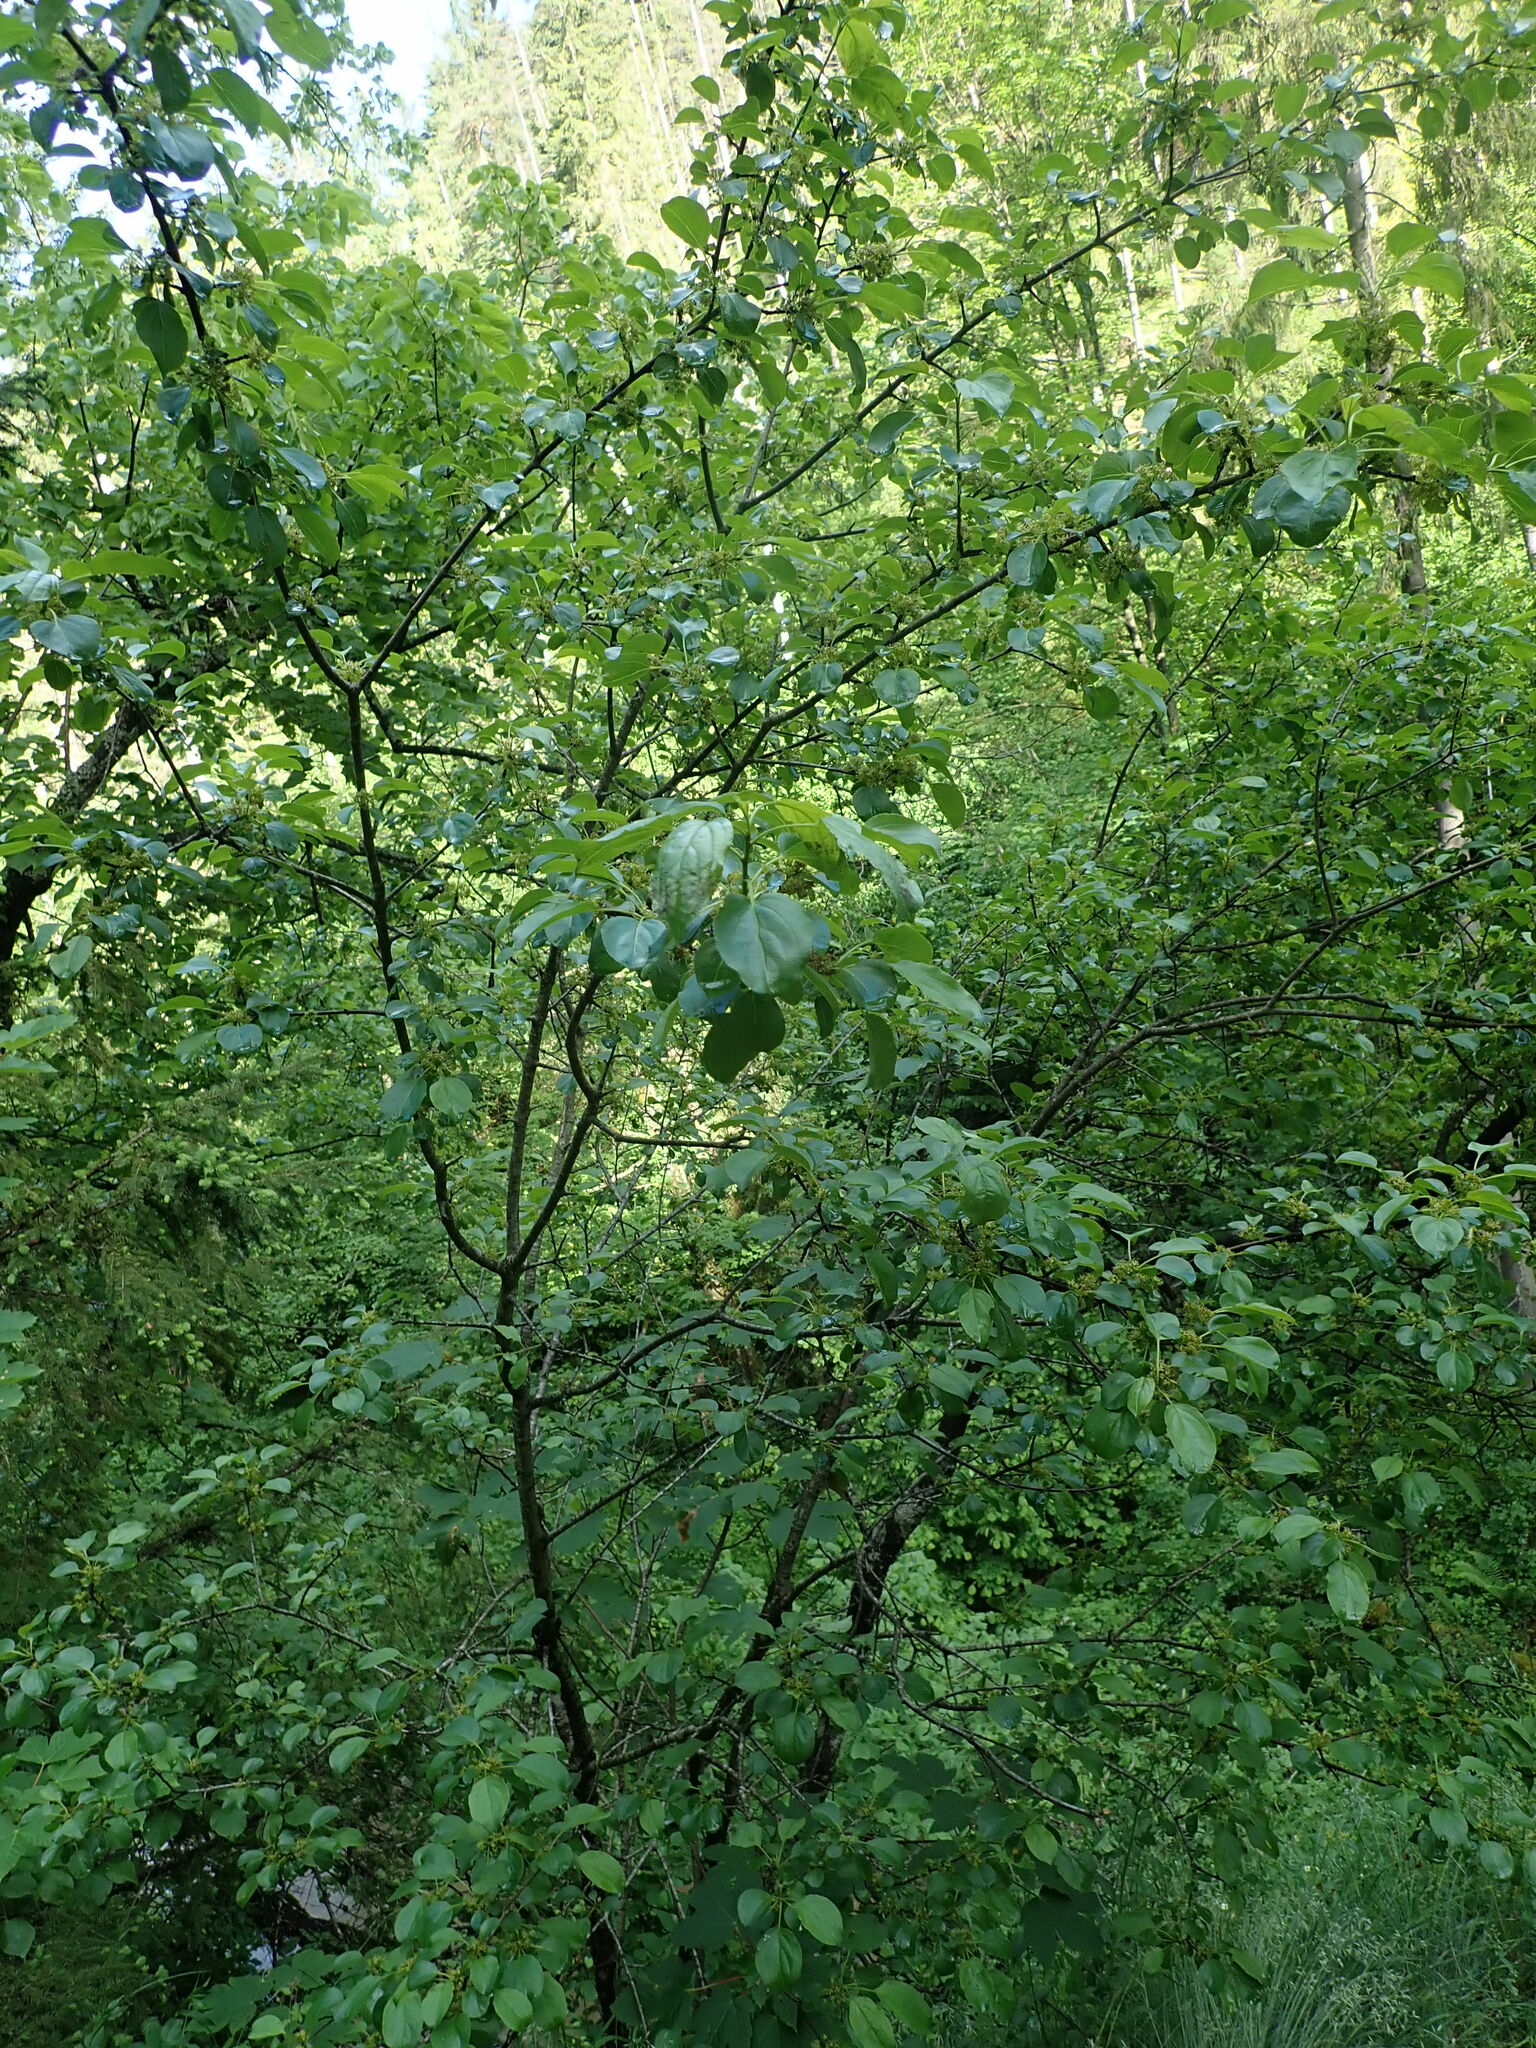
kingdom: Plantae
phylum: Tracheophyta
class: Magnoliopsida
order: Rosales
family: Rhamnaceae
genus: Rhamnus
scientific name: Rhamnus cathartica
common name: Common buckthorn
